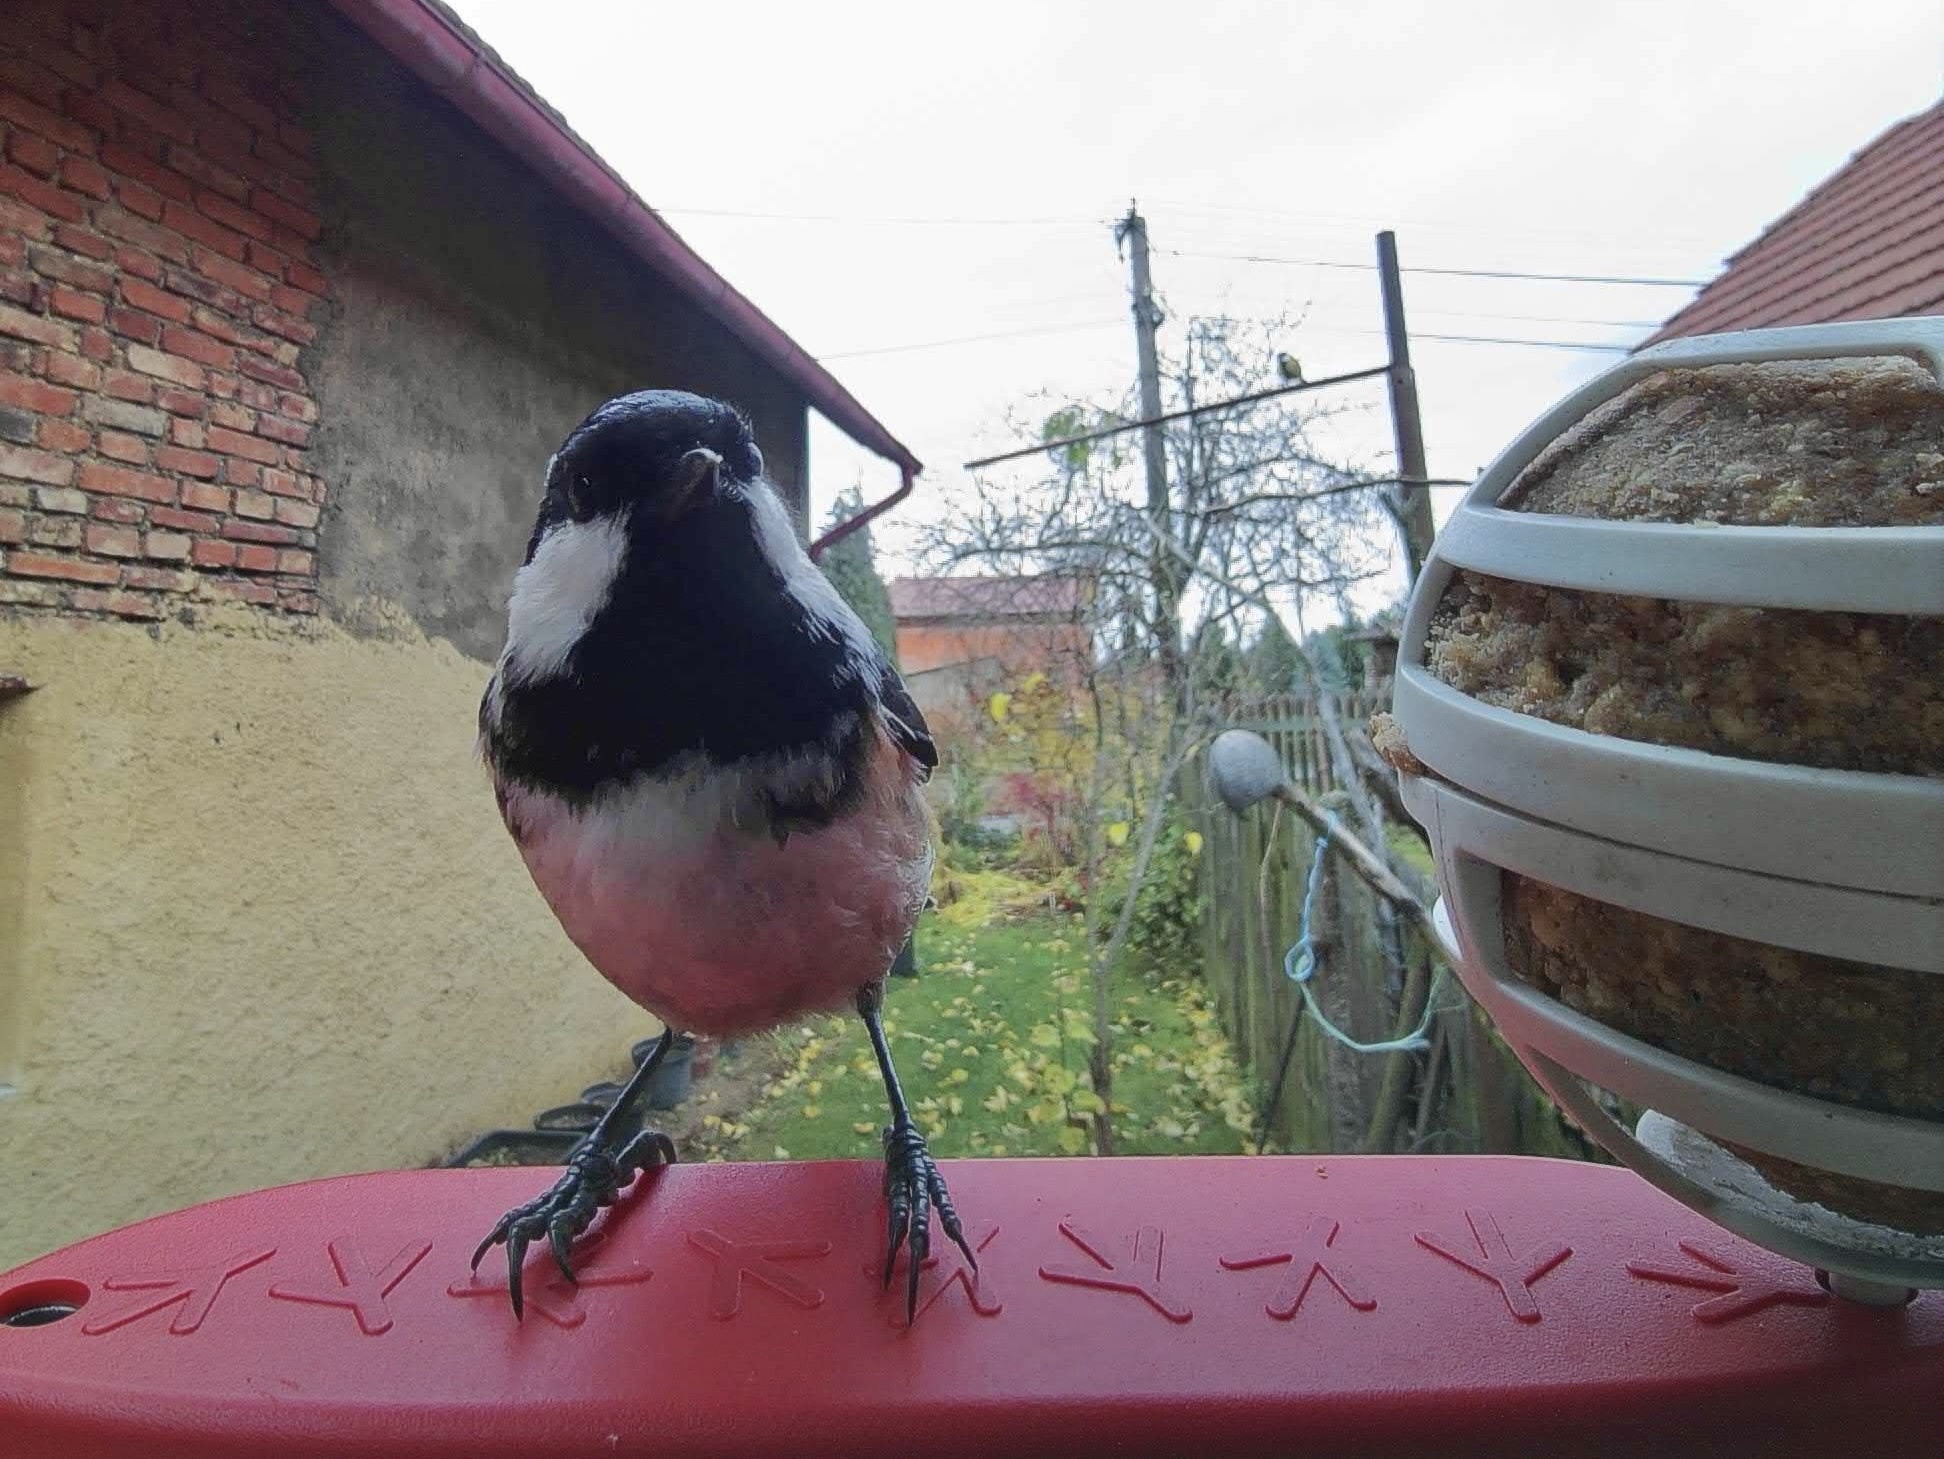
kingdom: Animalia
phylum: Chordata
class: Aves
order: Passeriformes
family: Paridae
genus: Periparus
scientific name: Periparus ater
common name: Coal tit
